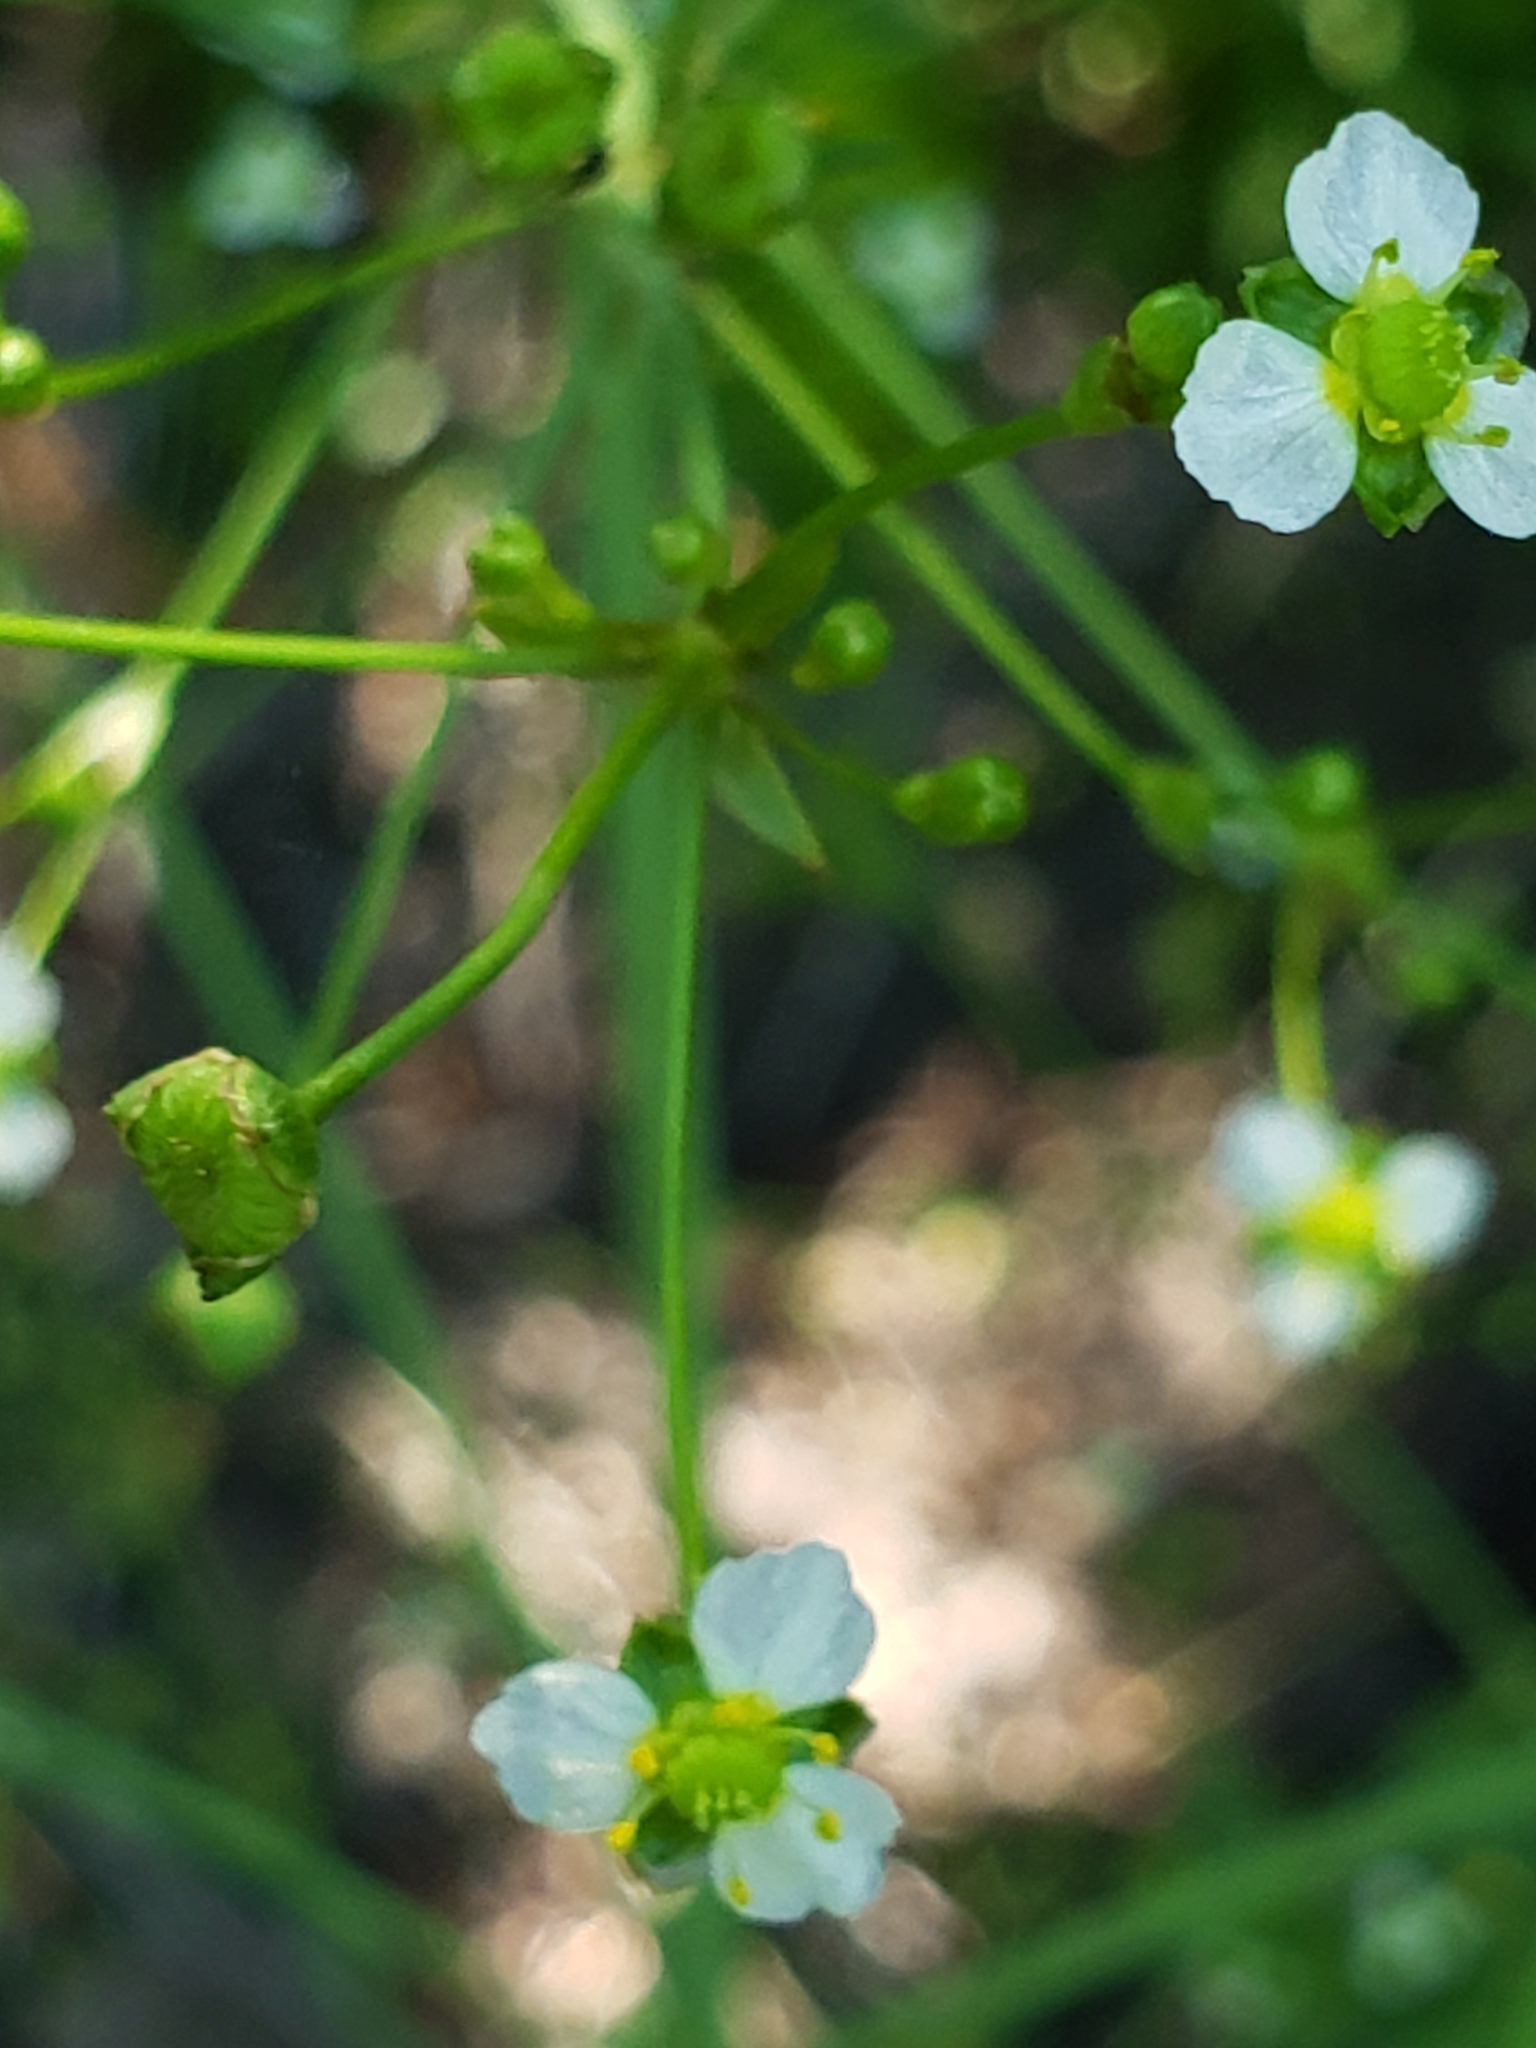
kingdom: Plantae
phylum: Tracheophyta
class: Liliopsida
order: Alismatales
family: Alismataceae
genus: Alisma
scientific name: Alisma triviale
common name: Northern water-plantain
